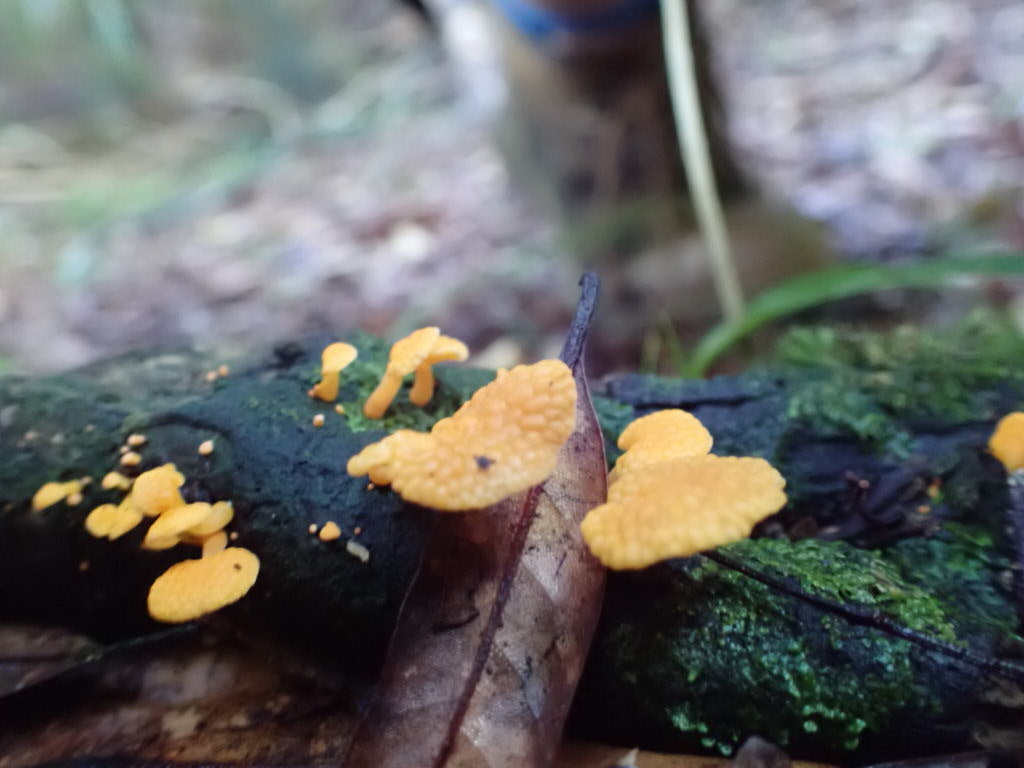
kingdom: Fungi
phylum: Basidiomycota
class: Agaricomycetes
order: Agaricales
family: Mycenaceae
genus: Favolaschia
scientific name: Favolaschia claudopus
